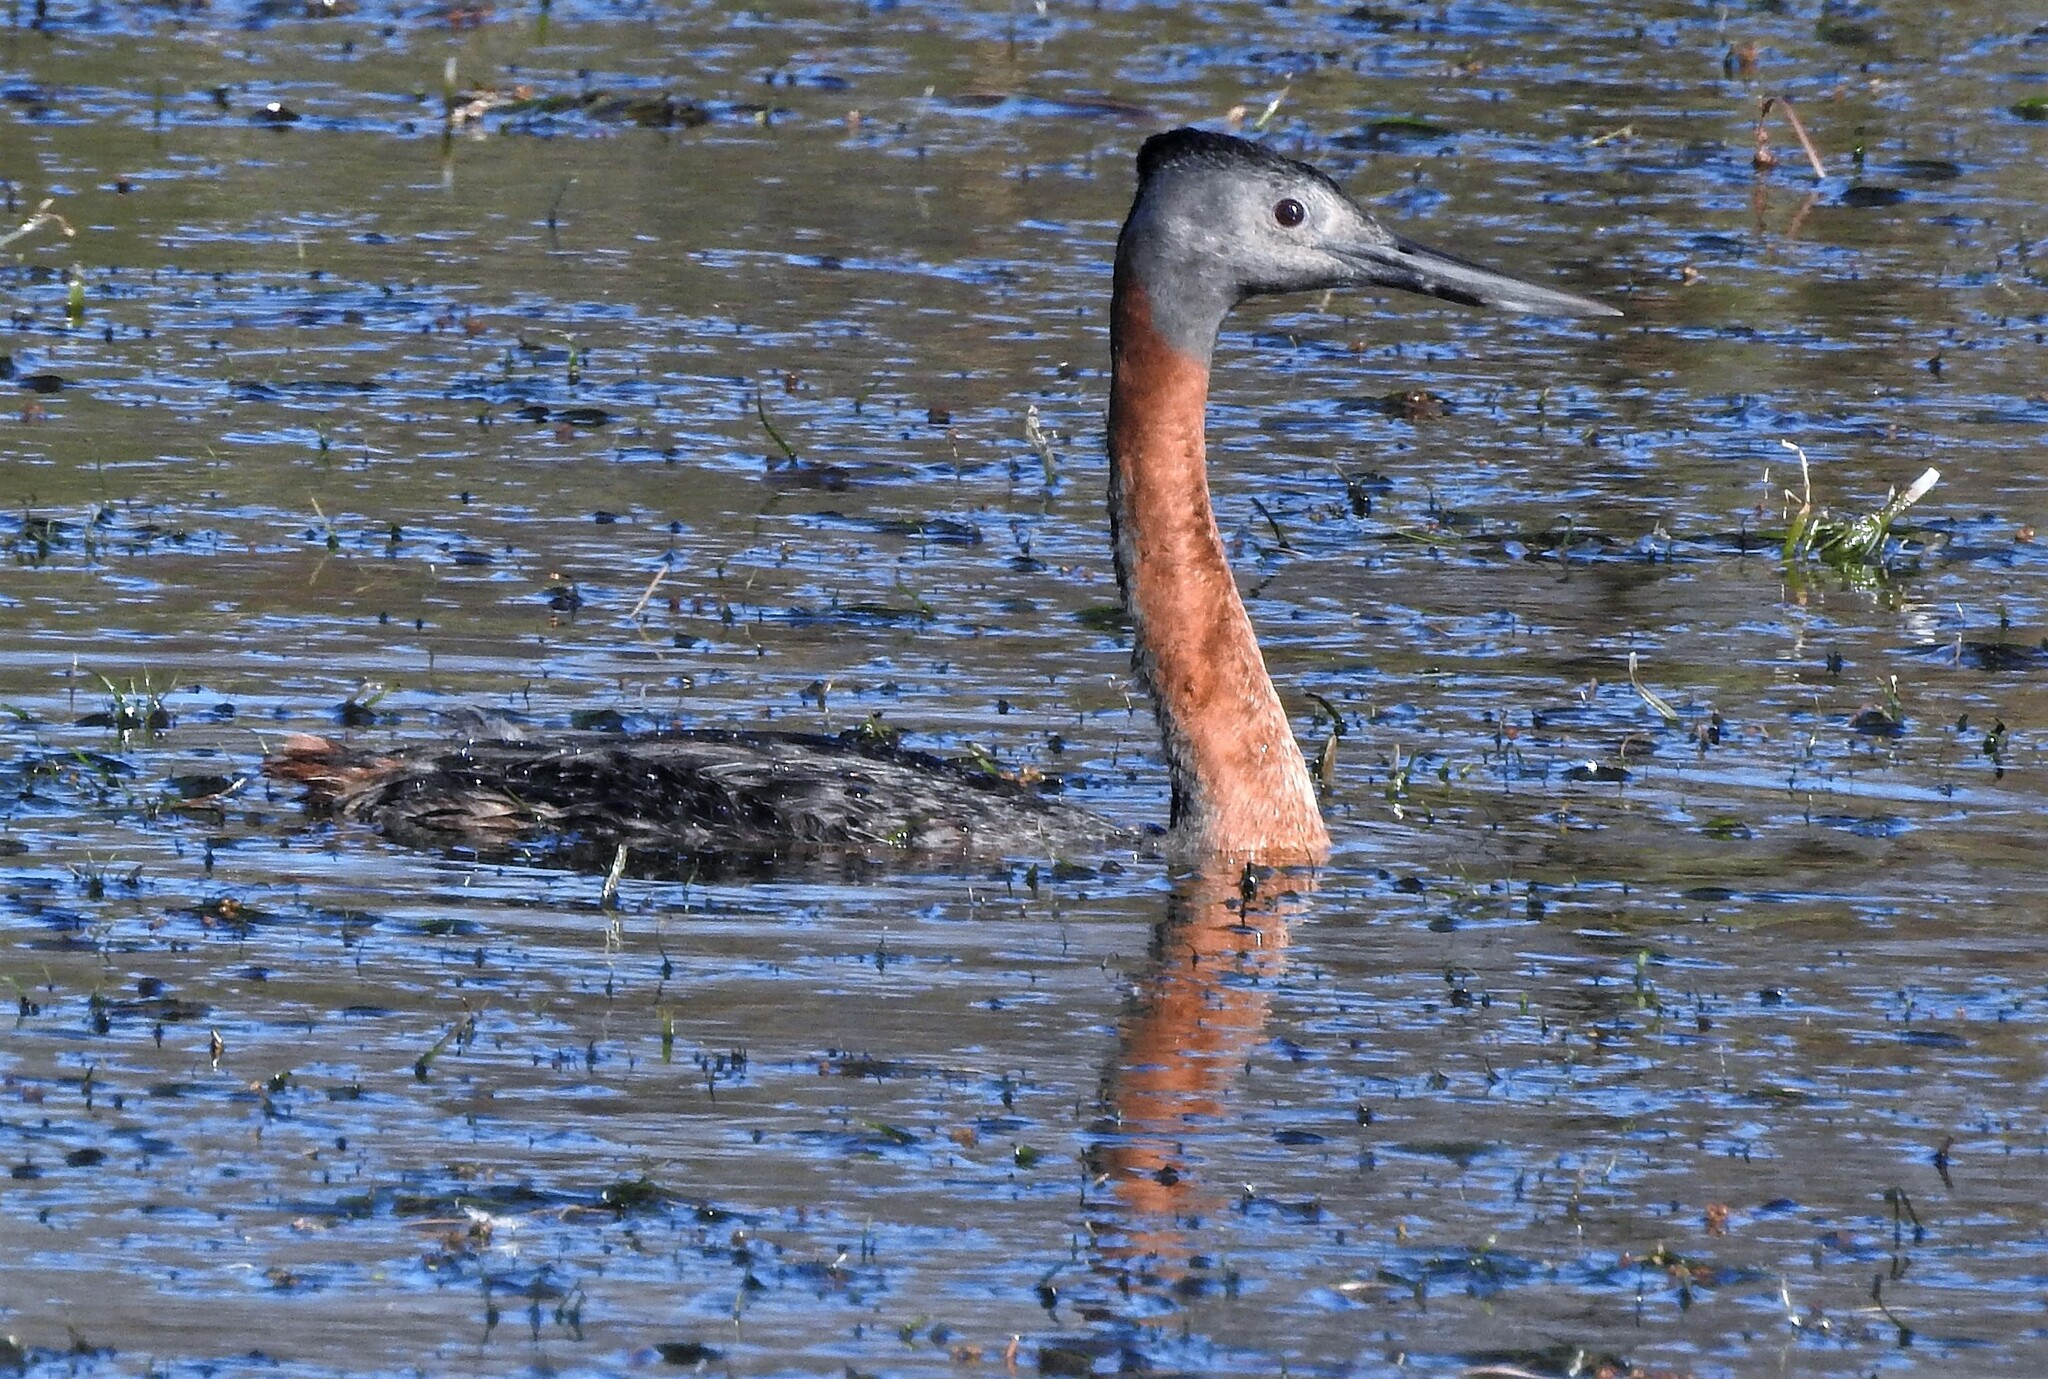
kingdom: Animalia
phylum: Chordata
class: Aves
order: Podicipediformes
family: Podicipedidae
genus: Podiceps
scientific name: Podiceps major
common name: Great grebe
